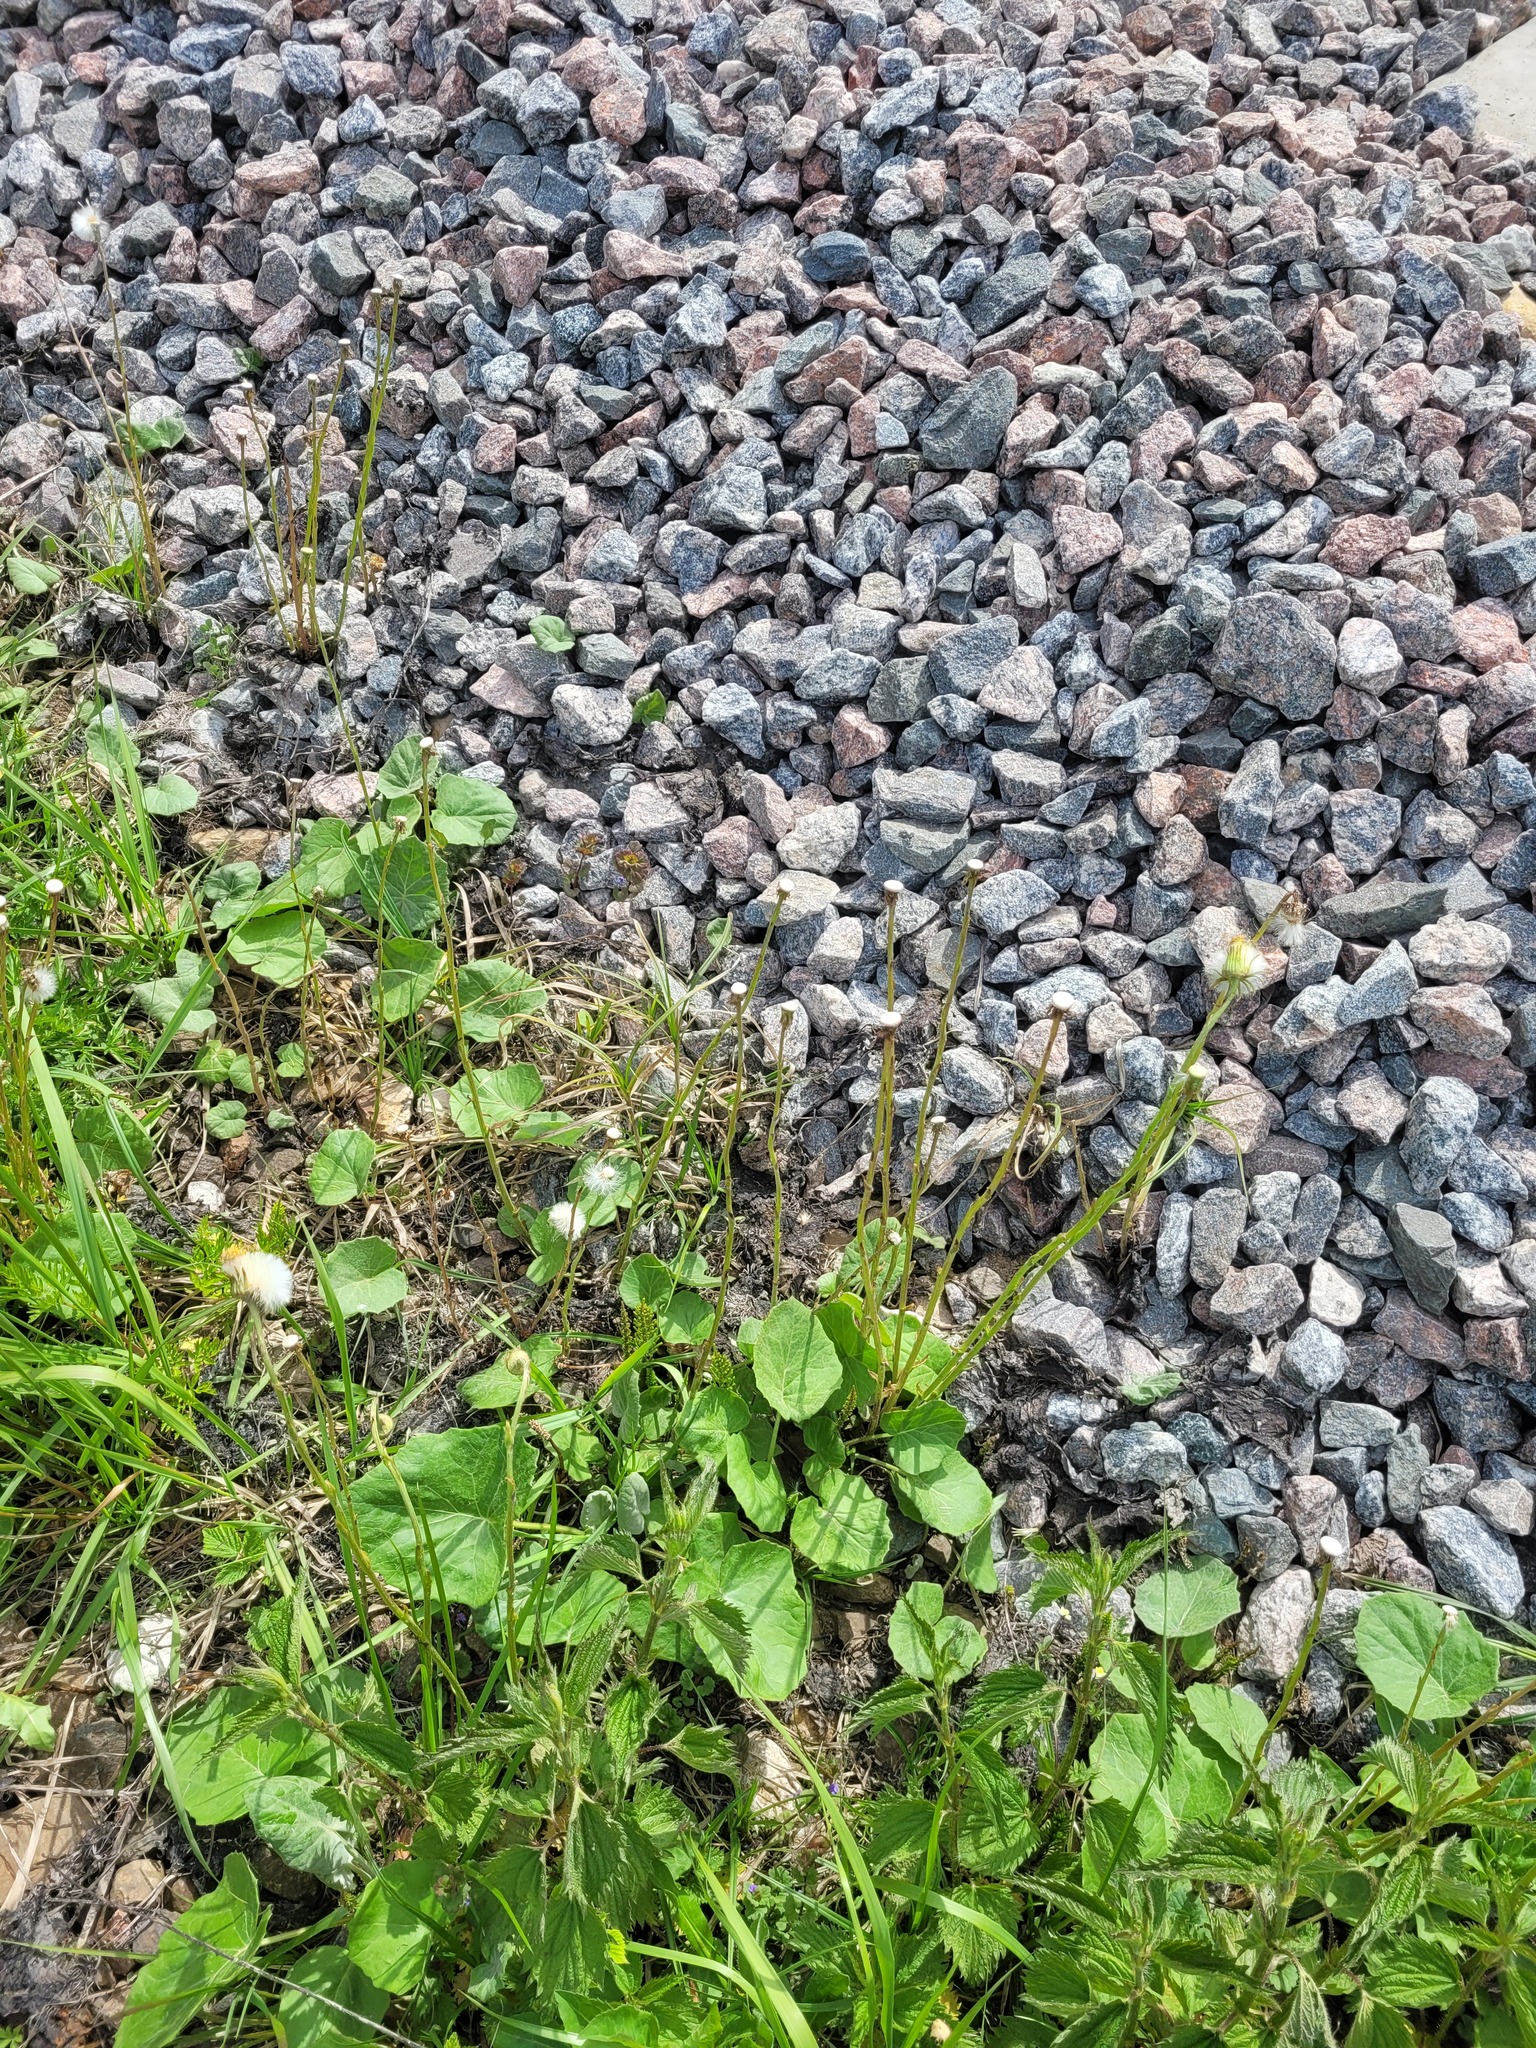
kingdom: Plantae
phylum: Tracheophyta
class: Magnoliopsida
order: Asterales
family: Asteraceae
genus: Tussilago
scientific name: Tussilago farfara
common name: Coltsfoot
